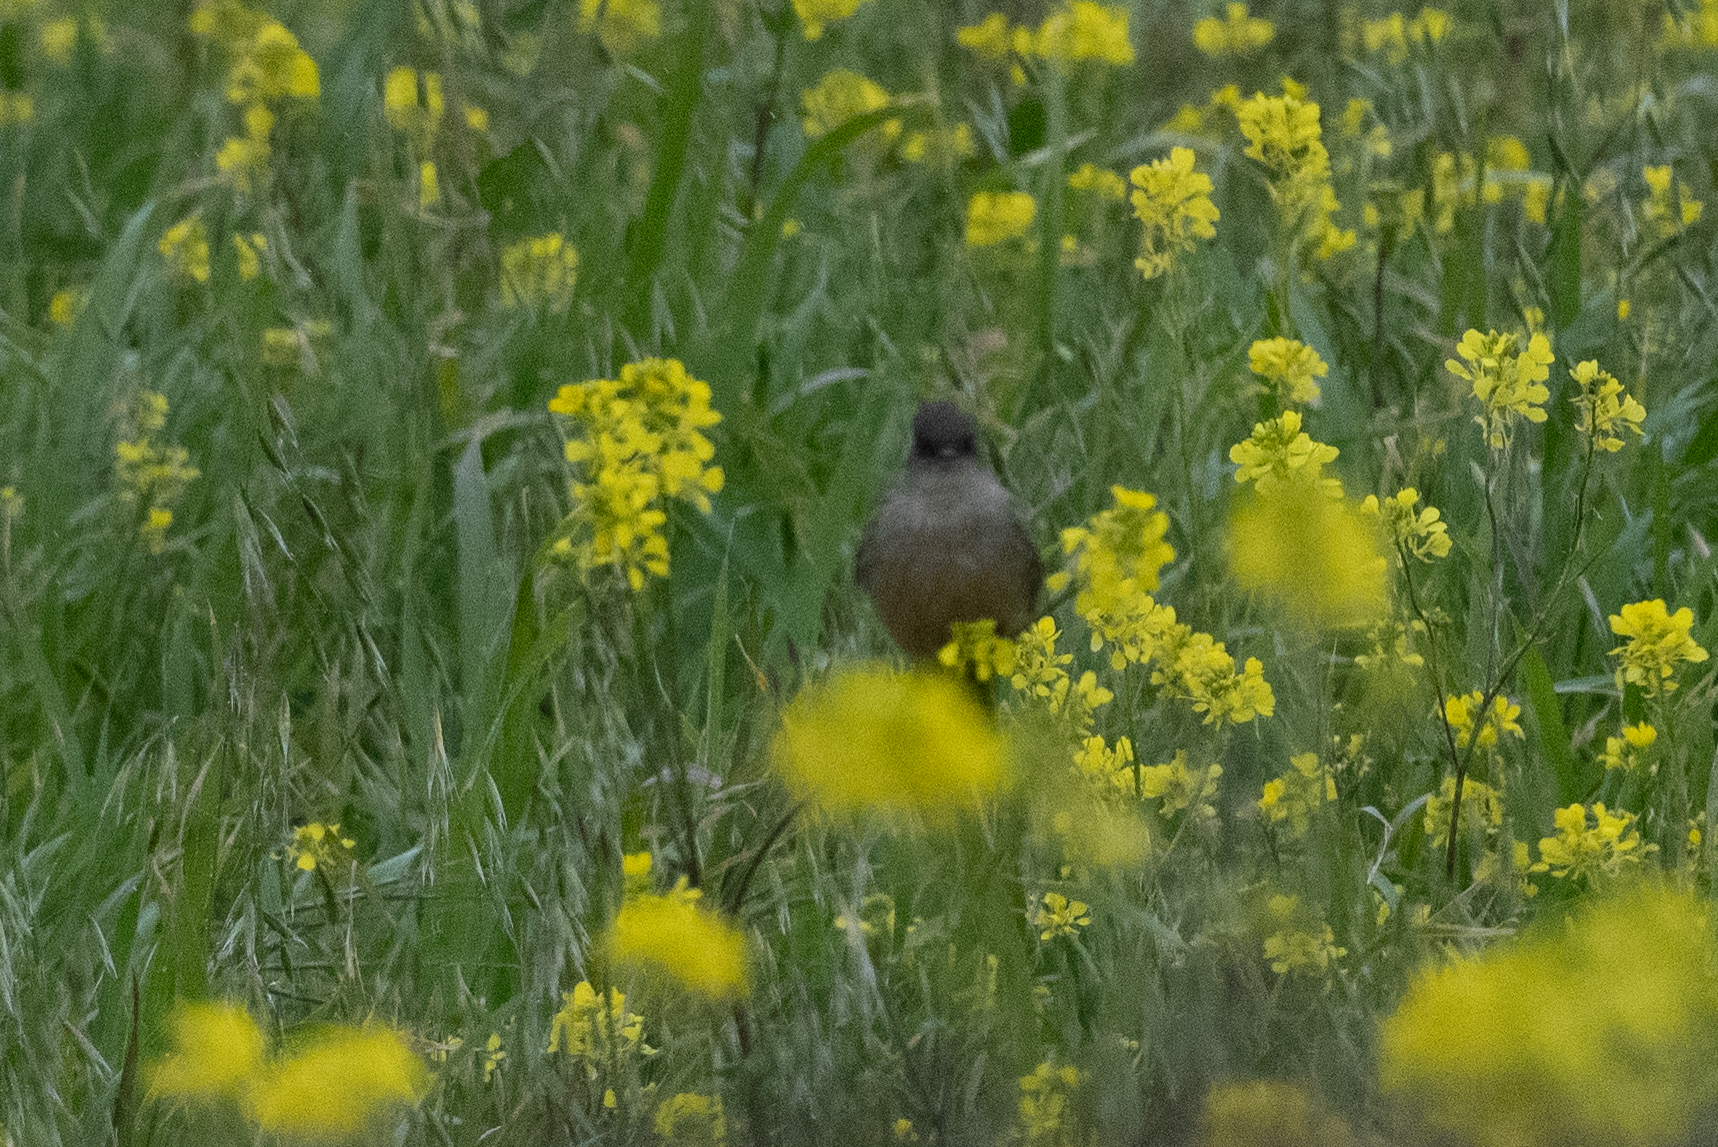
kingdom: Animalia
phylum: Chordata
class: Aves
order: Passeriformes
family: Tyrannidae
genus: Sayornis
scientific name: Sayornis saya
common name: Say's phoebe
